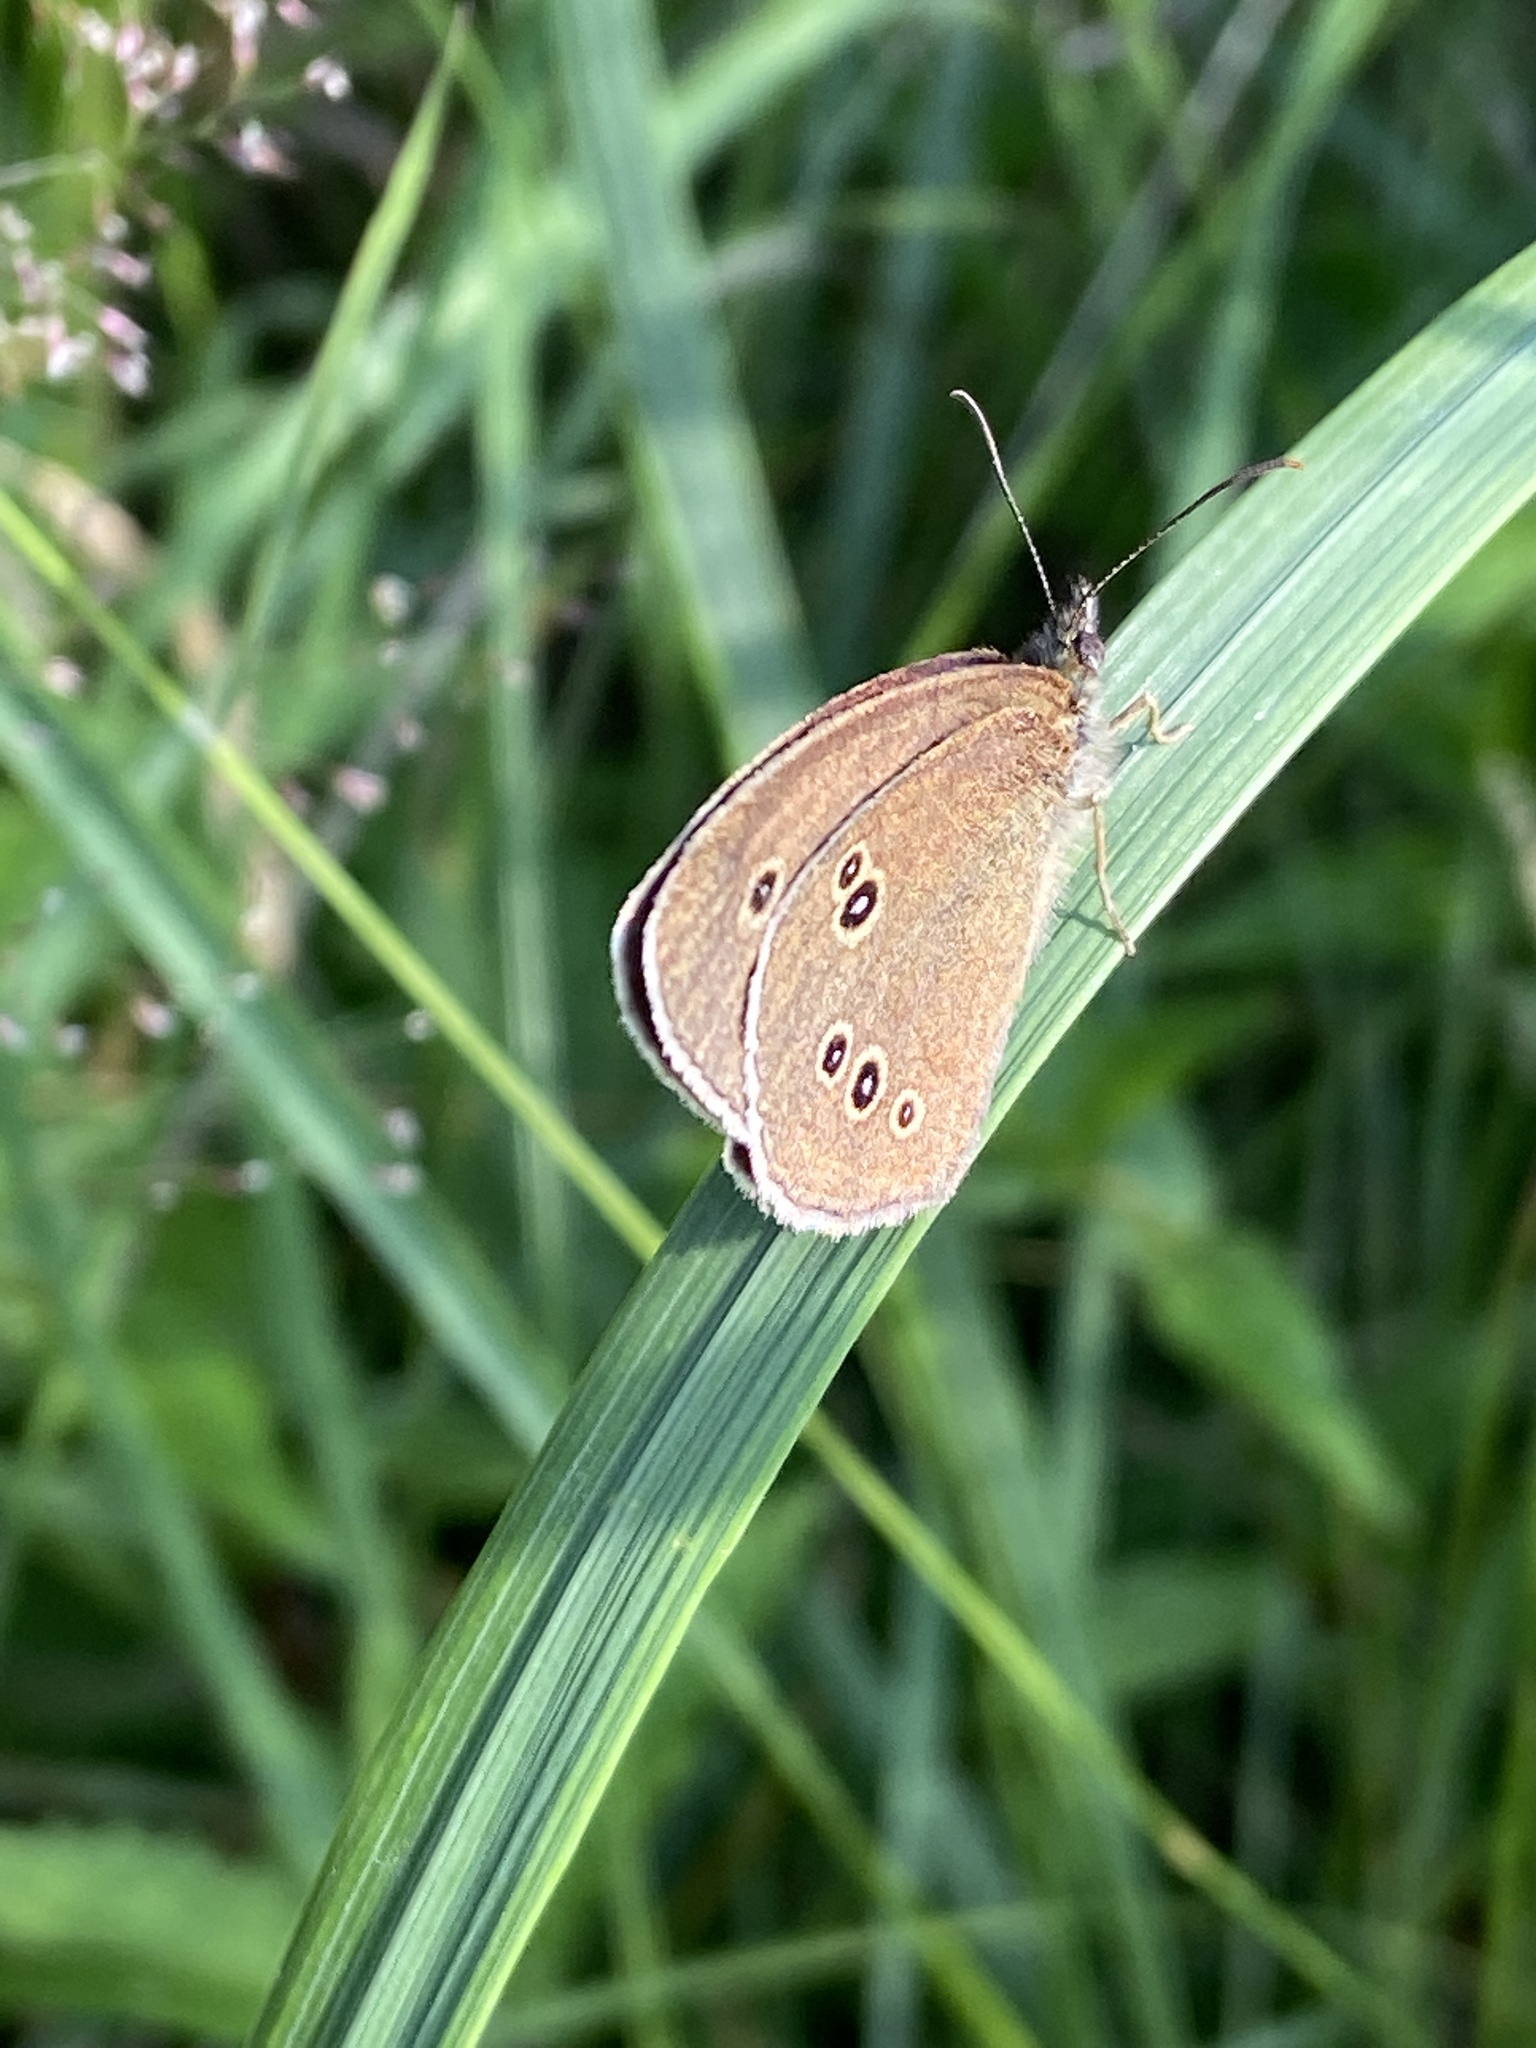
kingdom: Animalia
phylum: Arthropoda
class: Insecta
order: Lepidoptera
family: Nymphalidae
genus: Aphantopus
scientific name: Aphantopus hyperantus
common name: Ringlet
